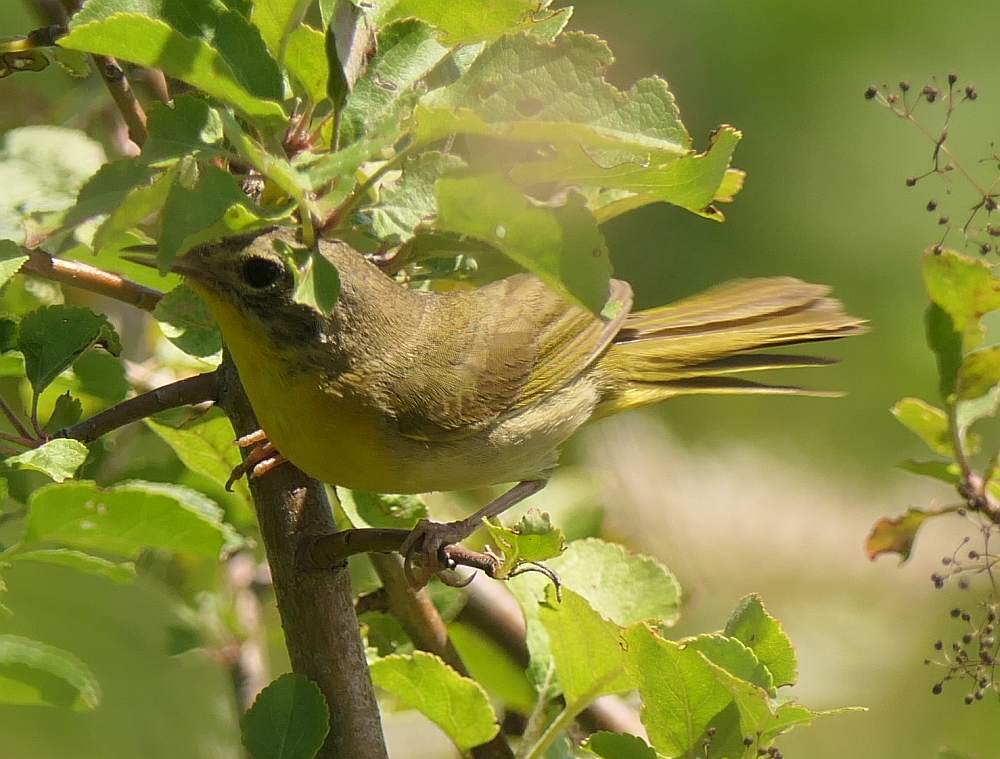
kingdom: Animalia
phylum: Chordata
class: Aves
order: Passeriformes
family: Parulidae
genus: Geothlypis
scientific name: Geothlypis trichas
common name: Common yellowthroat
